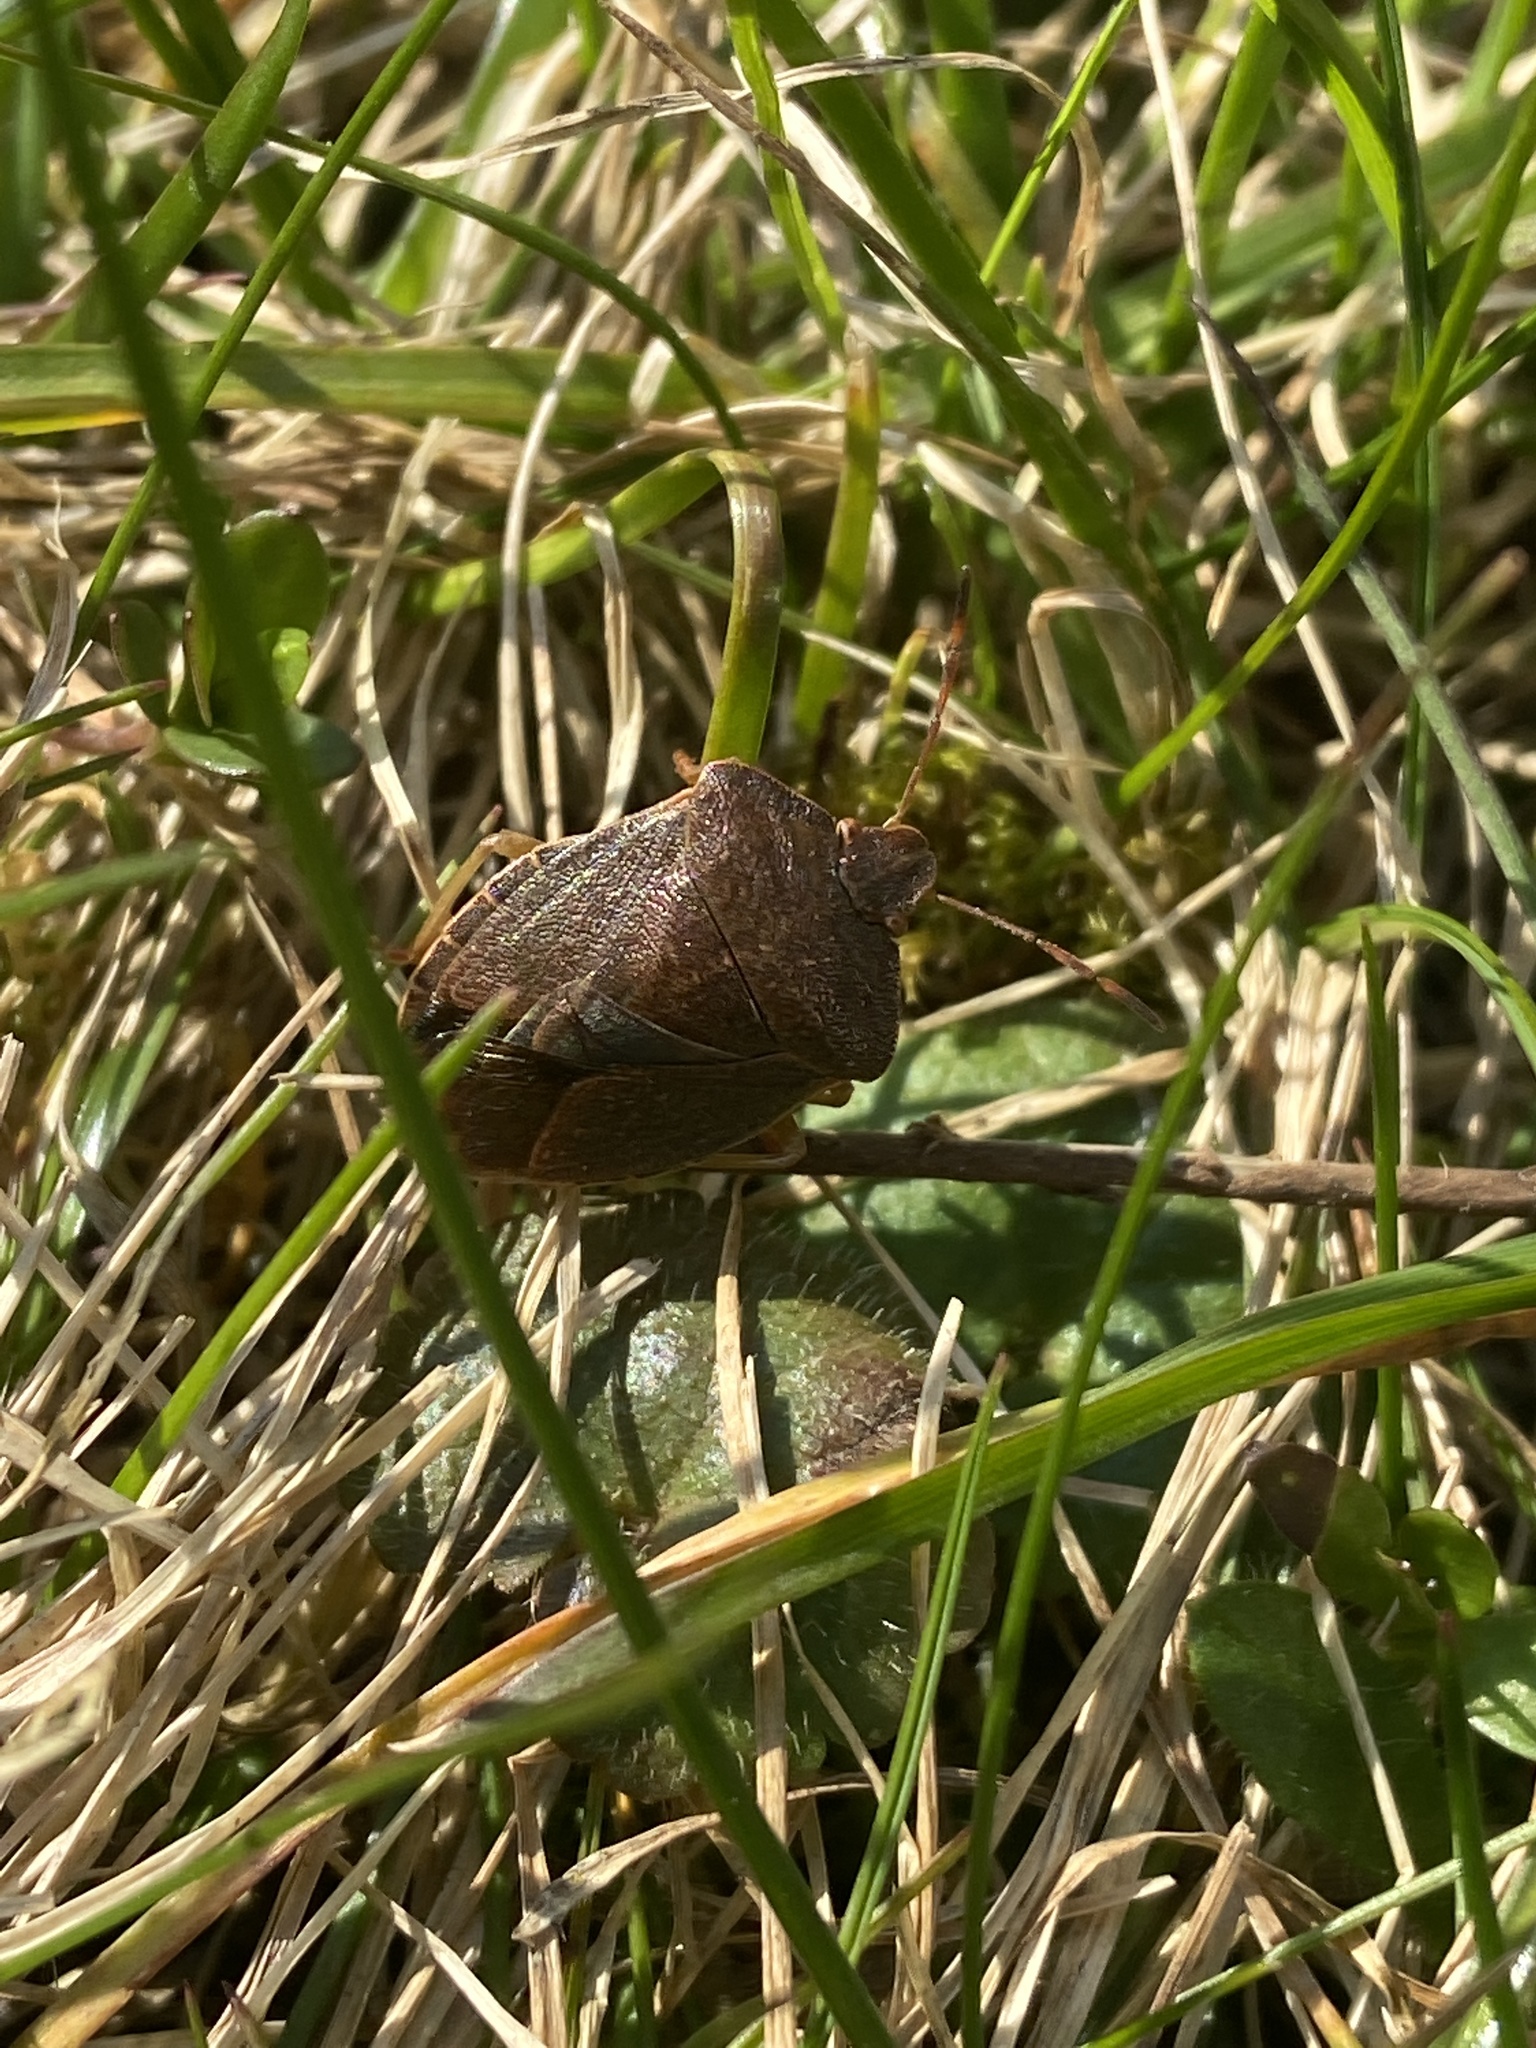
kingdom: Animalia
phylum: Arthropoda
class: Insecta
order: Hemiptera
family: Pentatomidae
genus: Palomena
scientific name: Palomena prasina
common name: Green shieldbug
